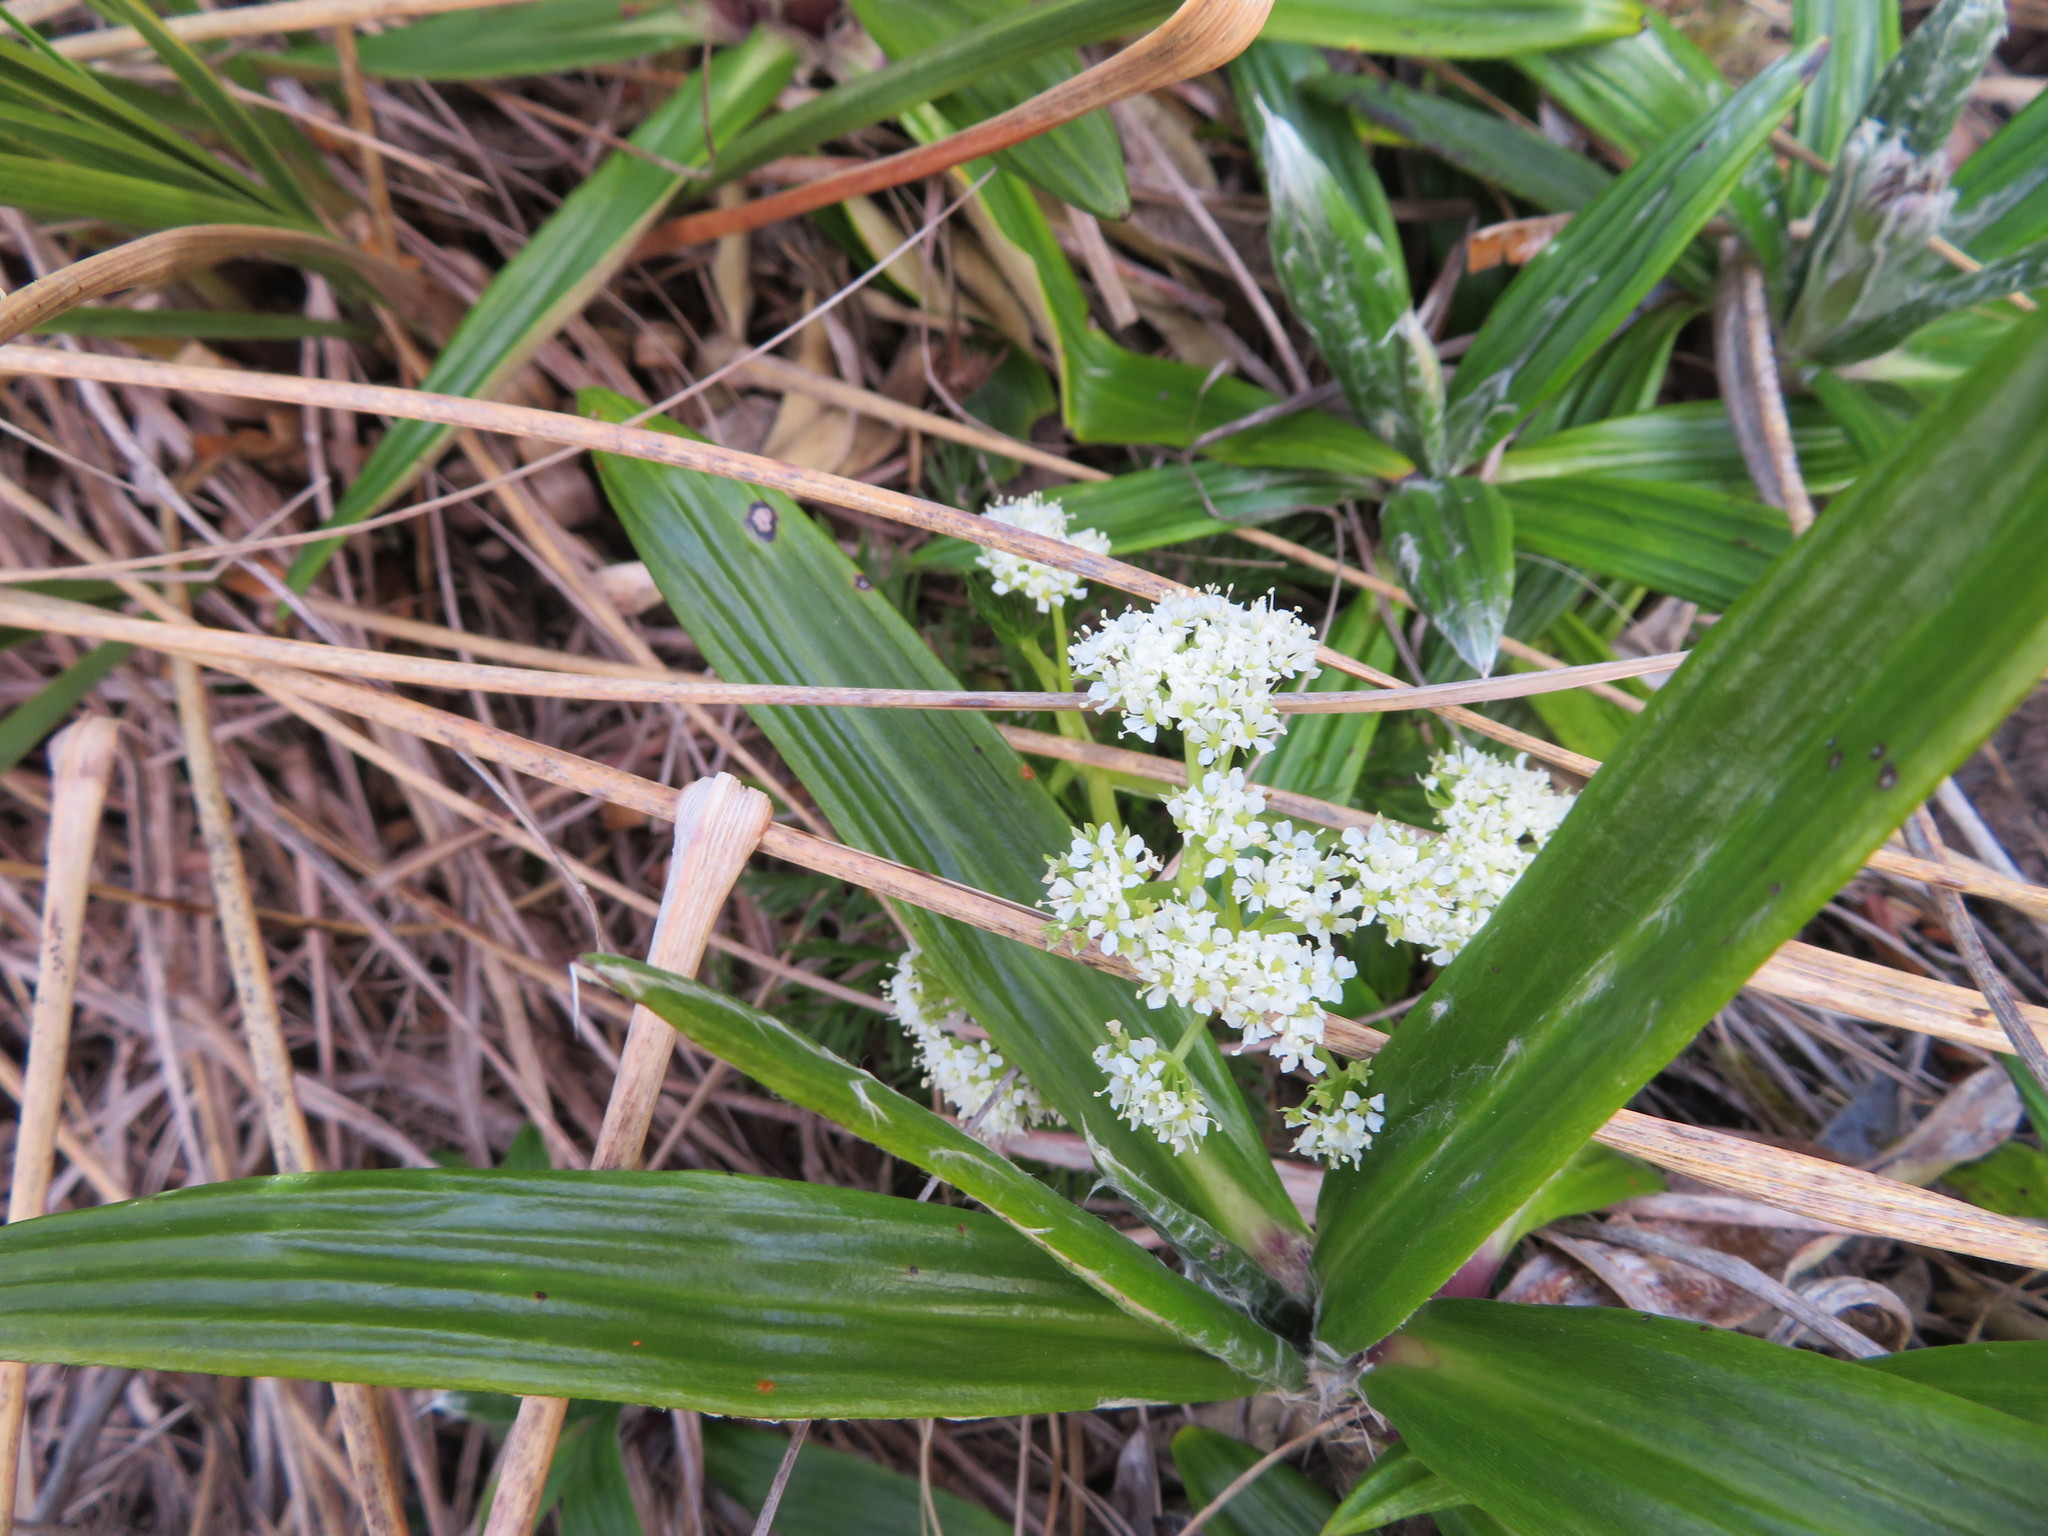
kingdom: Plantae
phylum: Tracheophyta
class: Magnoliopsida
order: Apiales
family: Apiaceae
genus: Aciphylla
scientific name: Aciphylla dissecta
